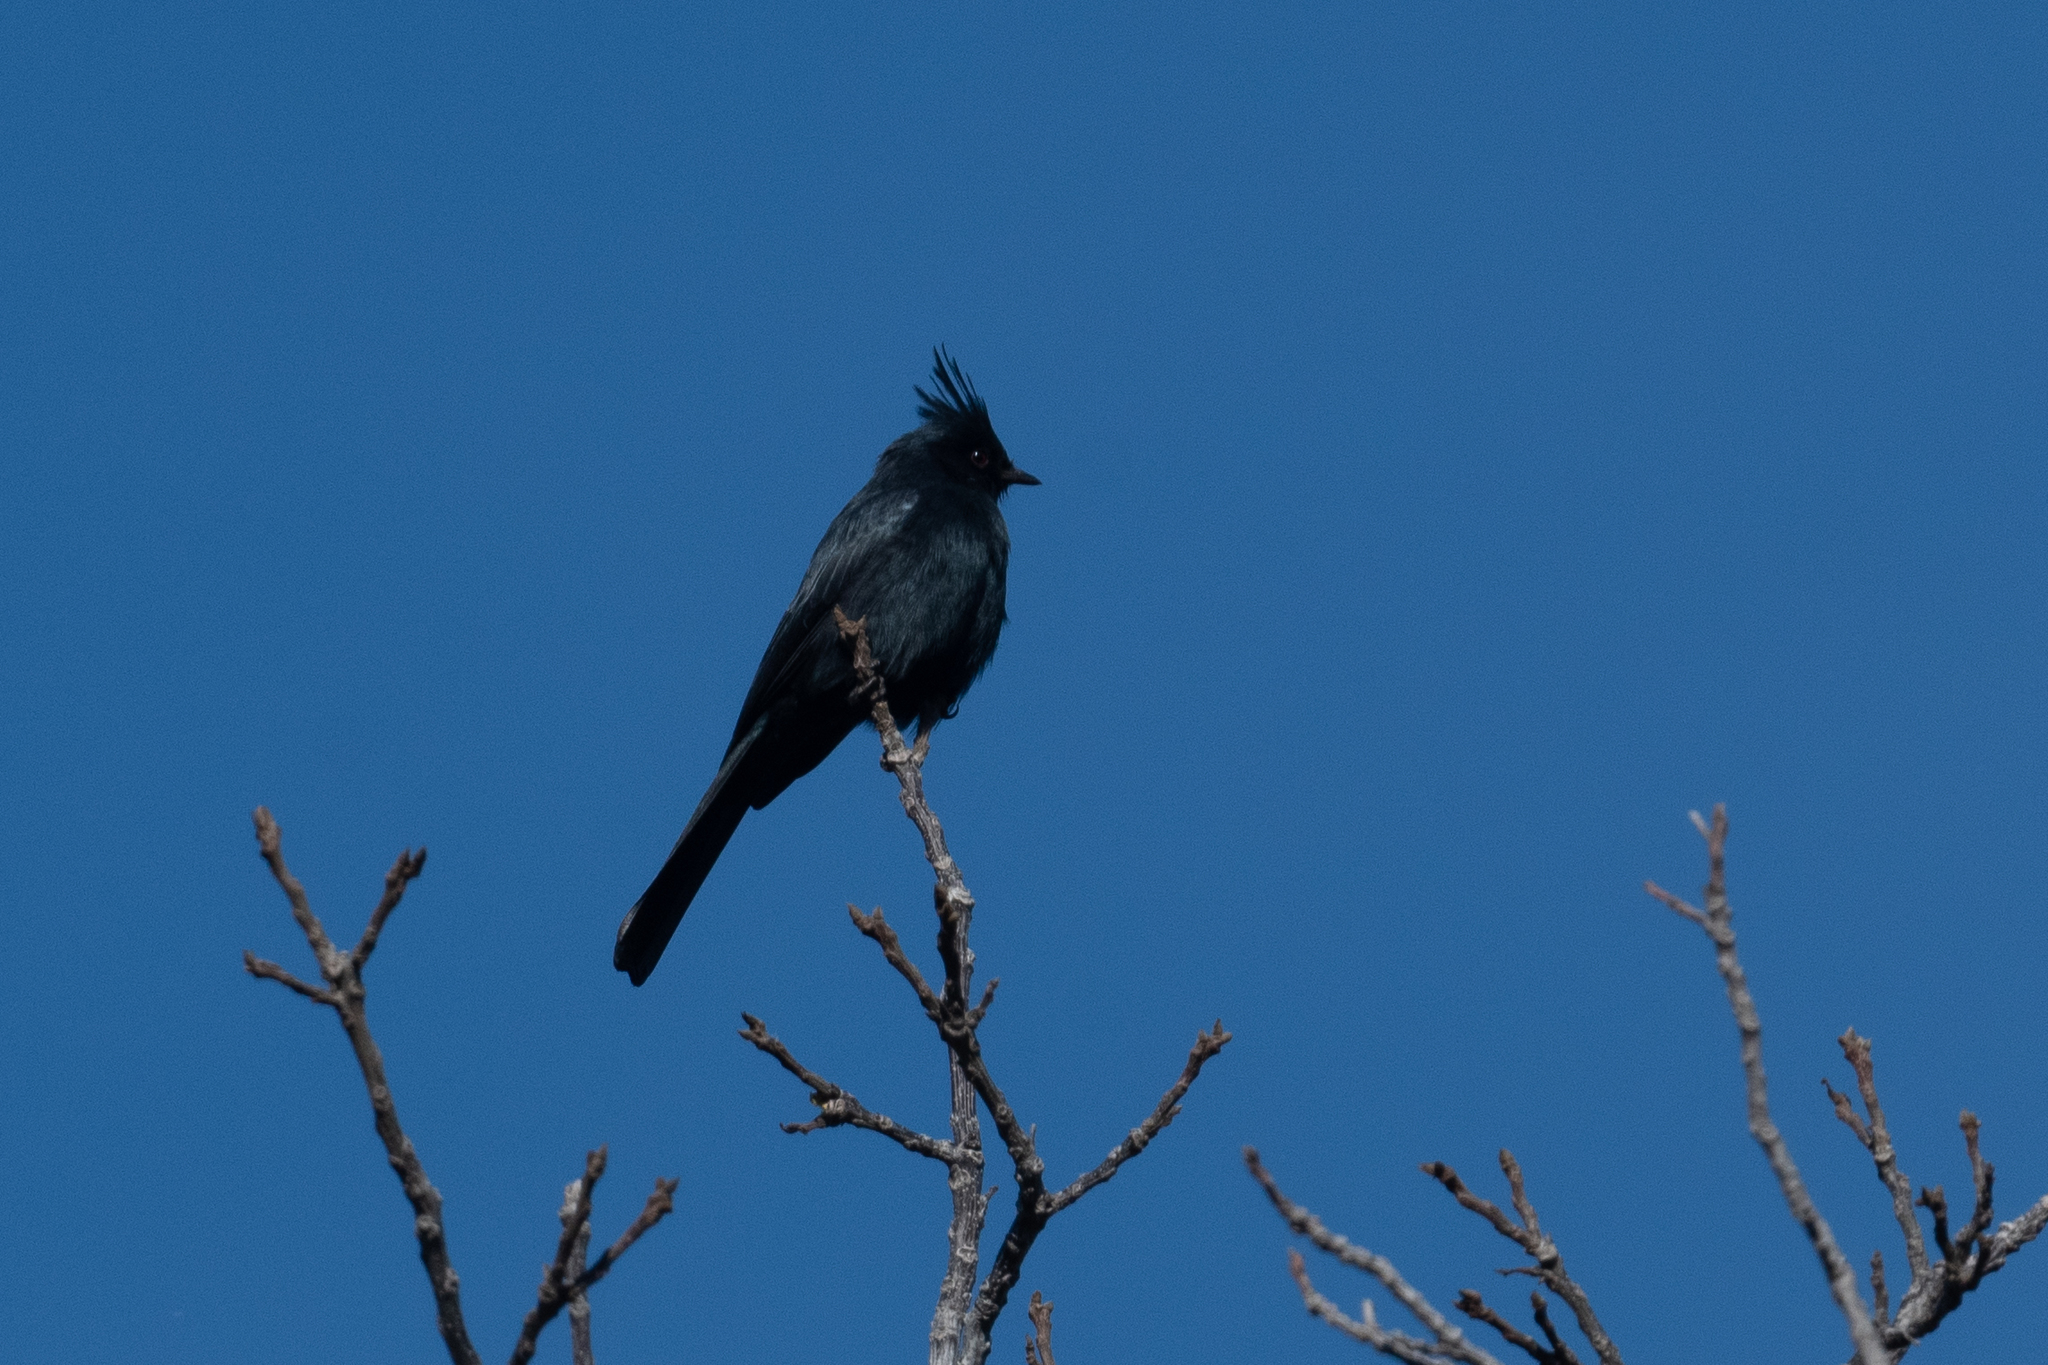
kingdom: Animalia
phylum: Chordata
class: Aves
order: Passeriformes
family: Ptilogonatidae
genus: Phainopepla
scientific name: Phainopepla nitens
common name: Phainopepla
